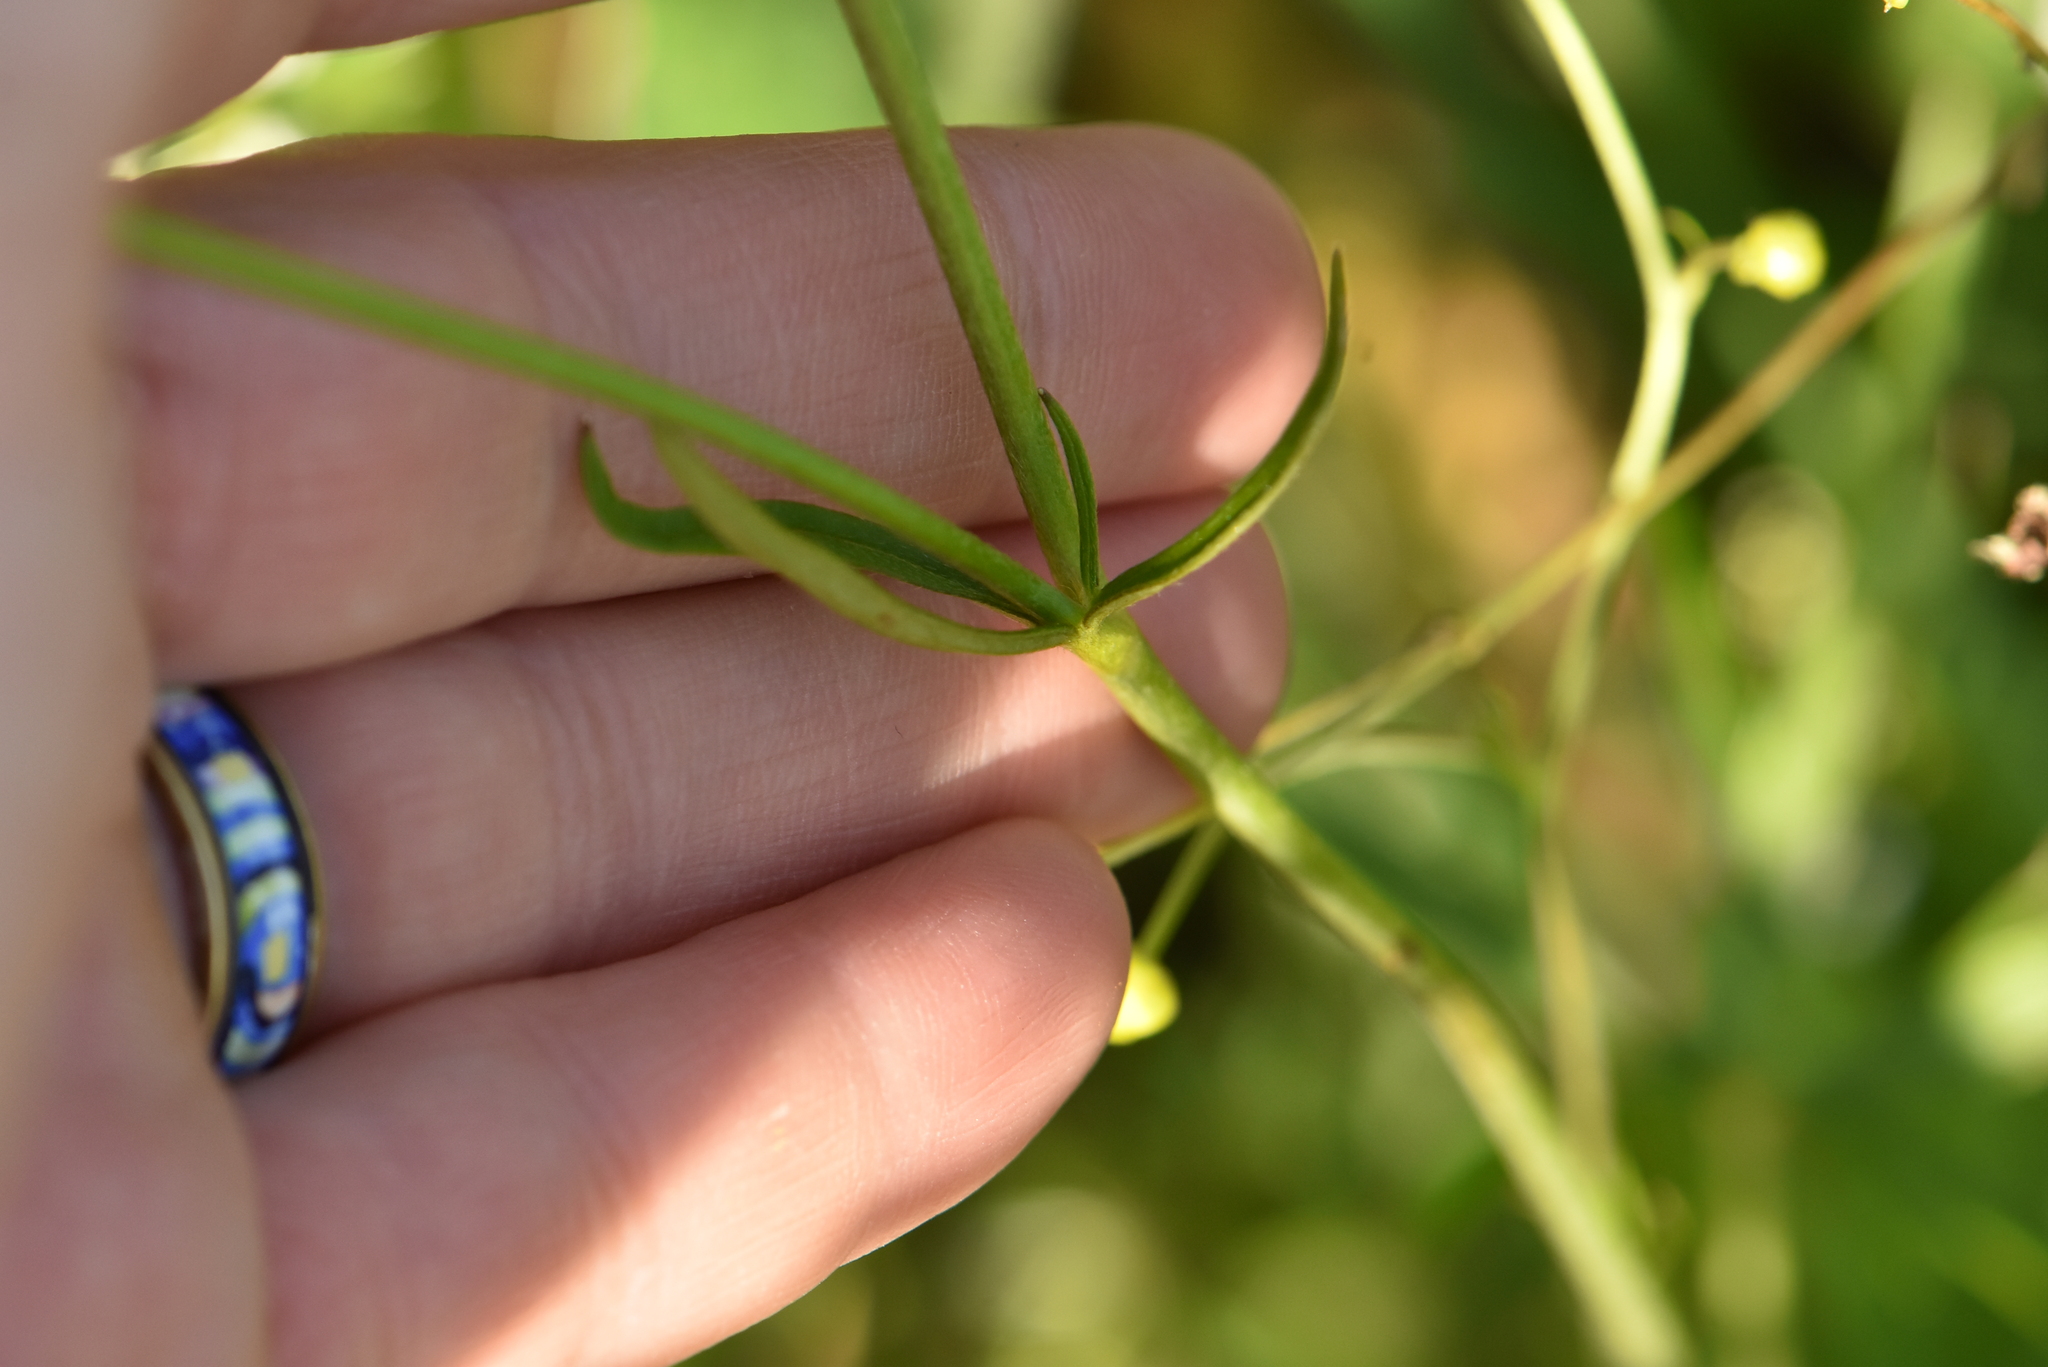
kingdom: Plantae
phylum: Tracheophyta
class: Magnoliopsida
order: Ranunculales
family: Ranunculaceae
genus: Ranunculus
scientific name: Ranunculus acris
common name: Meadow buttercup
